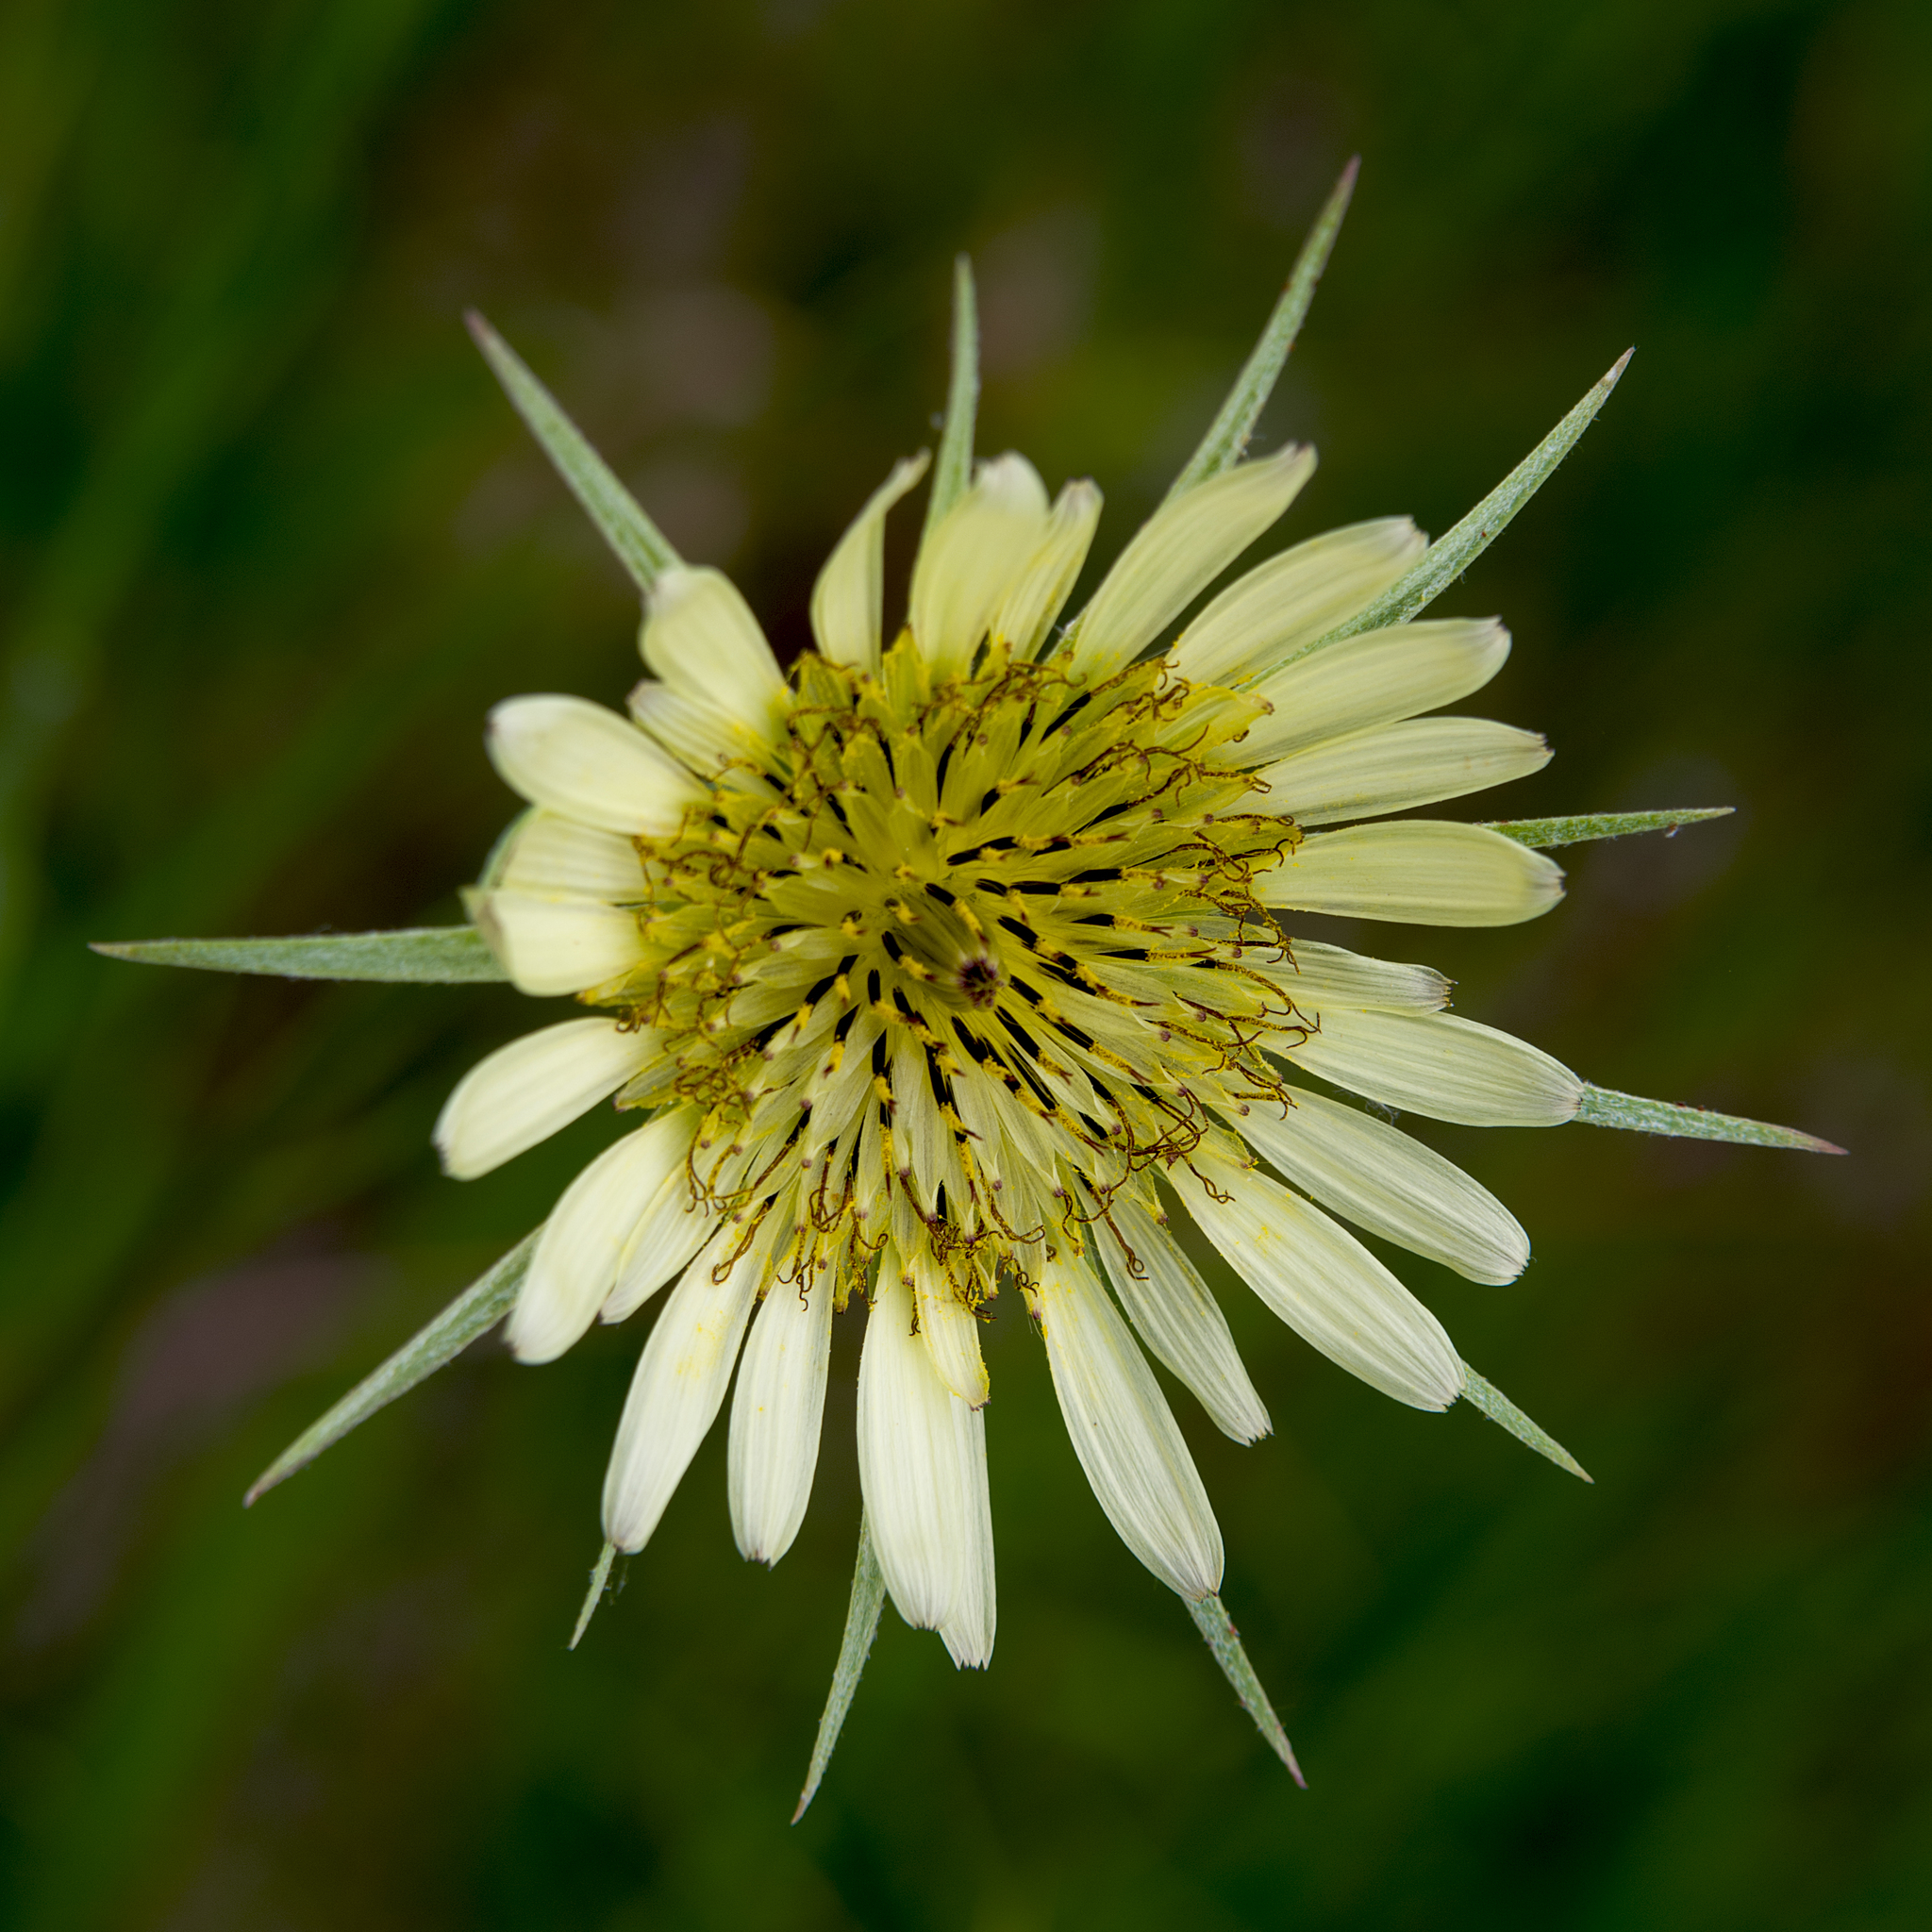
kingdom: Plantae
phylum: Tracheophyta
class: Magnoliopsida
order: Asterales
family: Asteraceae
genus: Tragopogon
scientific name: Tragopogon dubius
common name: Yellow salsify
